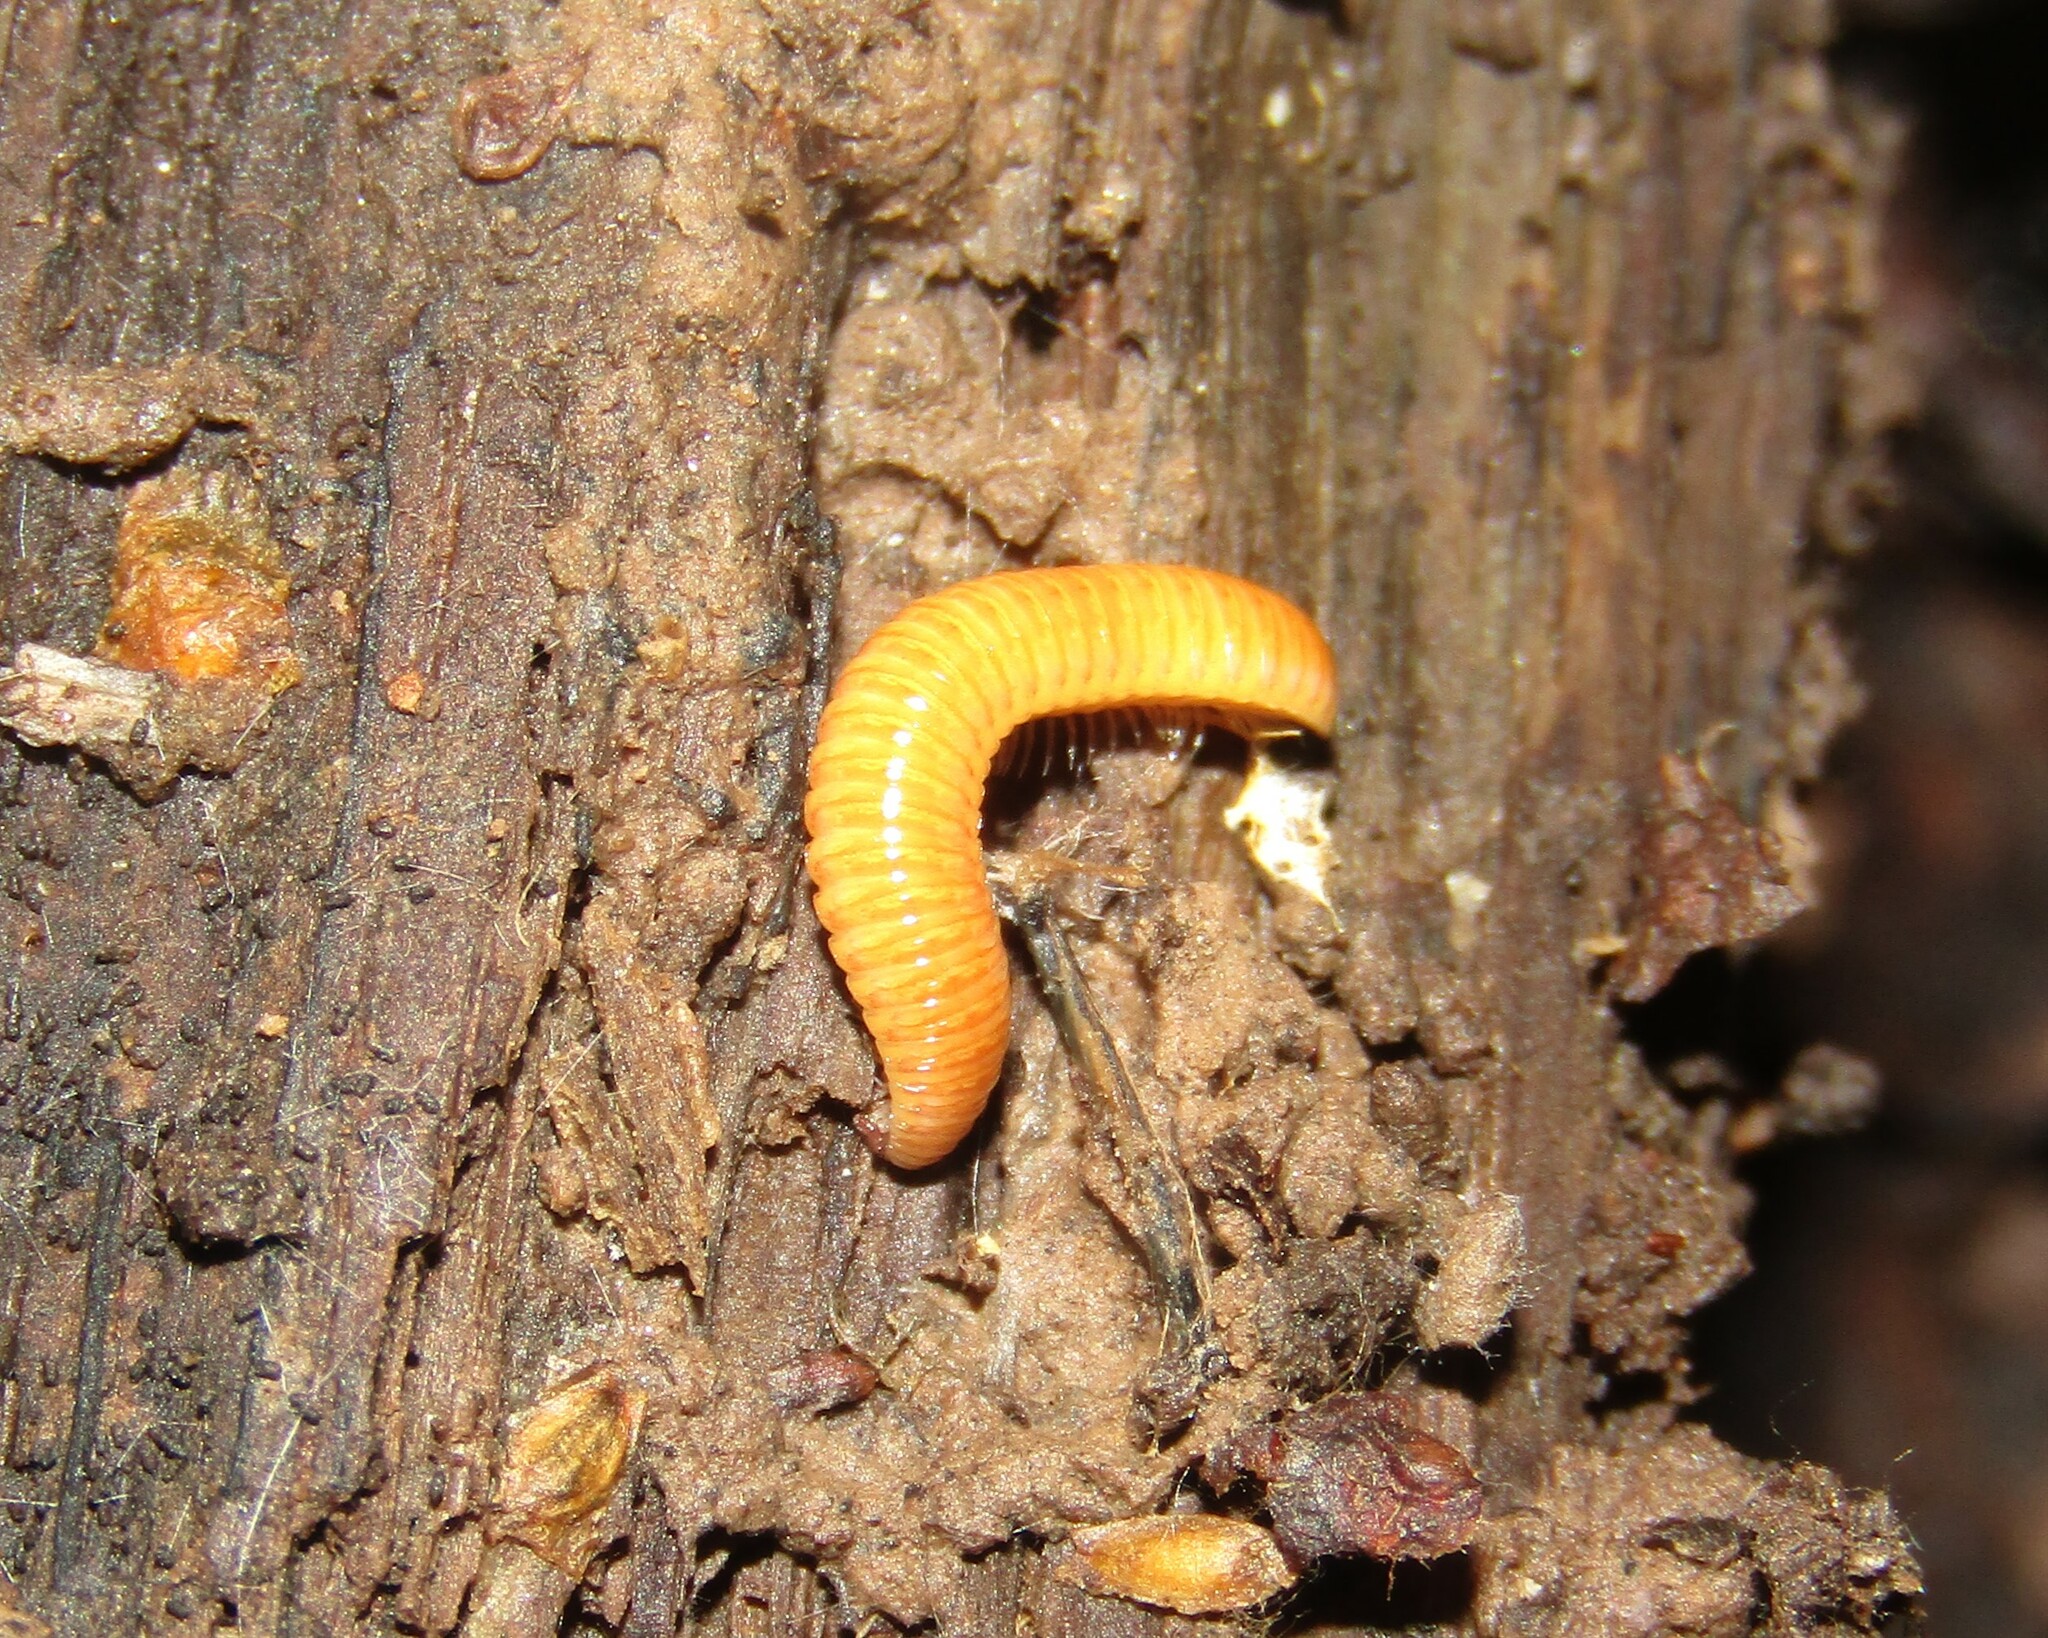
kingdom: Animalia
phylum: Arthropoda
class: Diplopoda
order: Polyzoniida
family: Polyzoniidae
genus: Polyzonium
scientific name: Polyzonium germanicum
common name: Boring millipede
